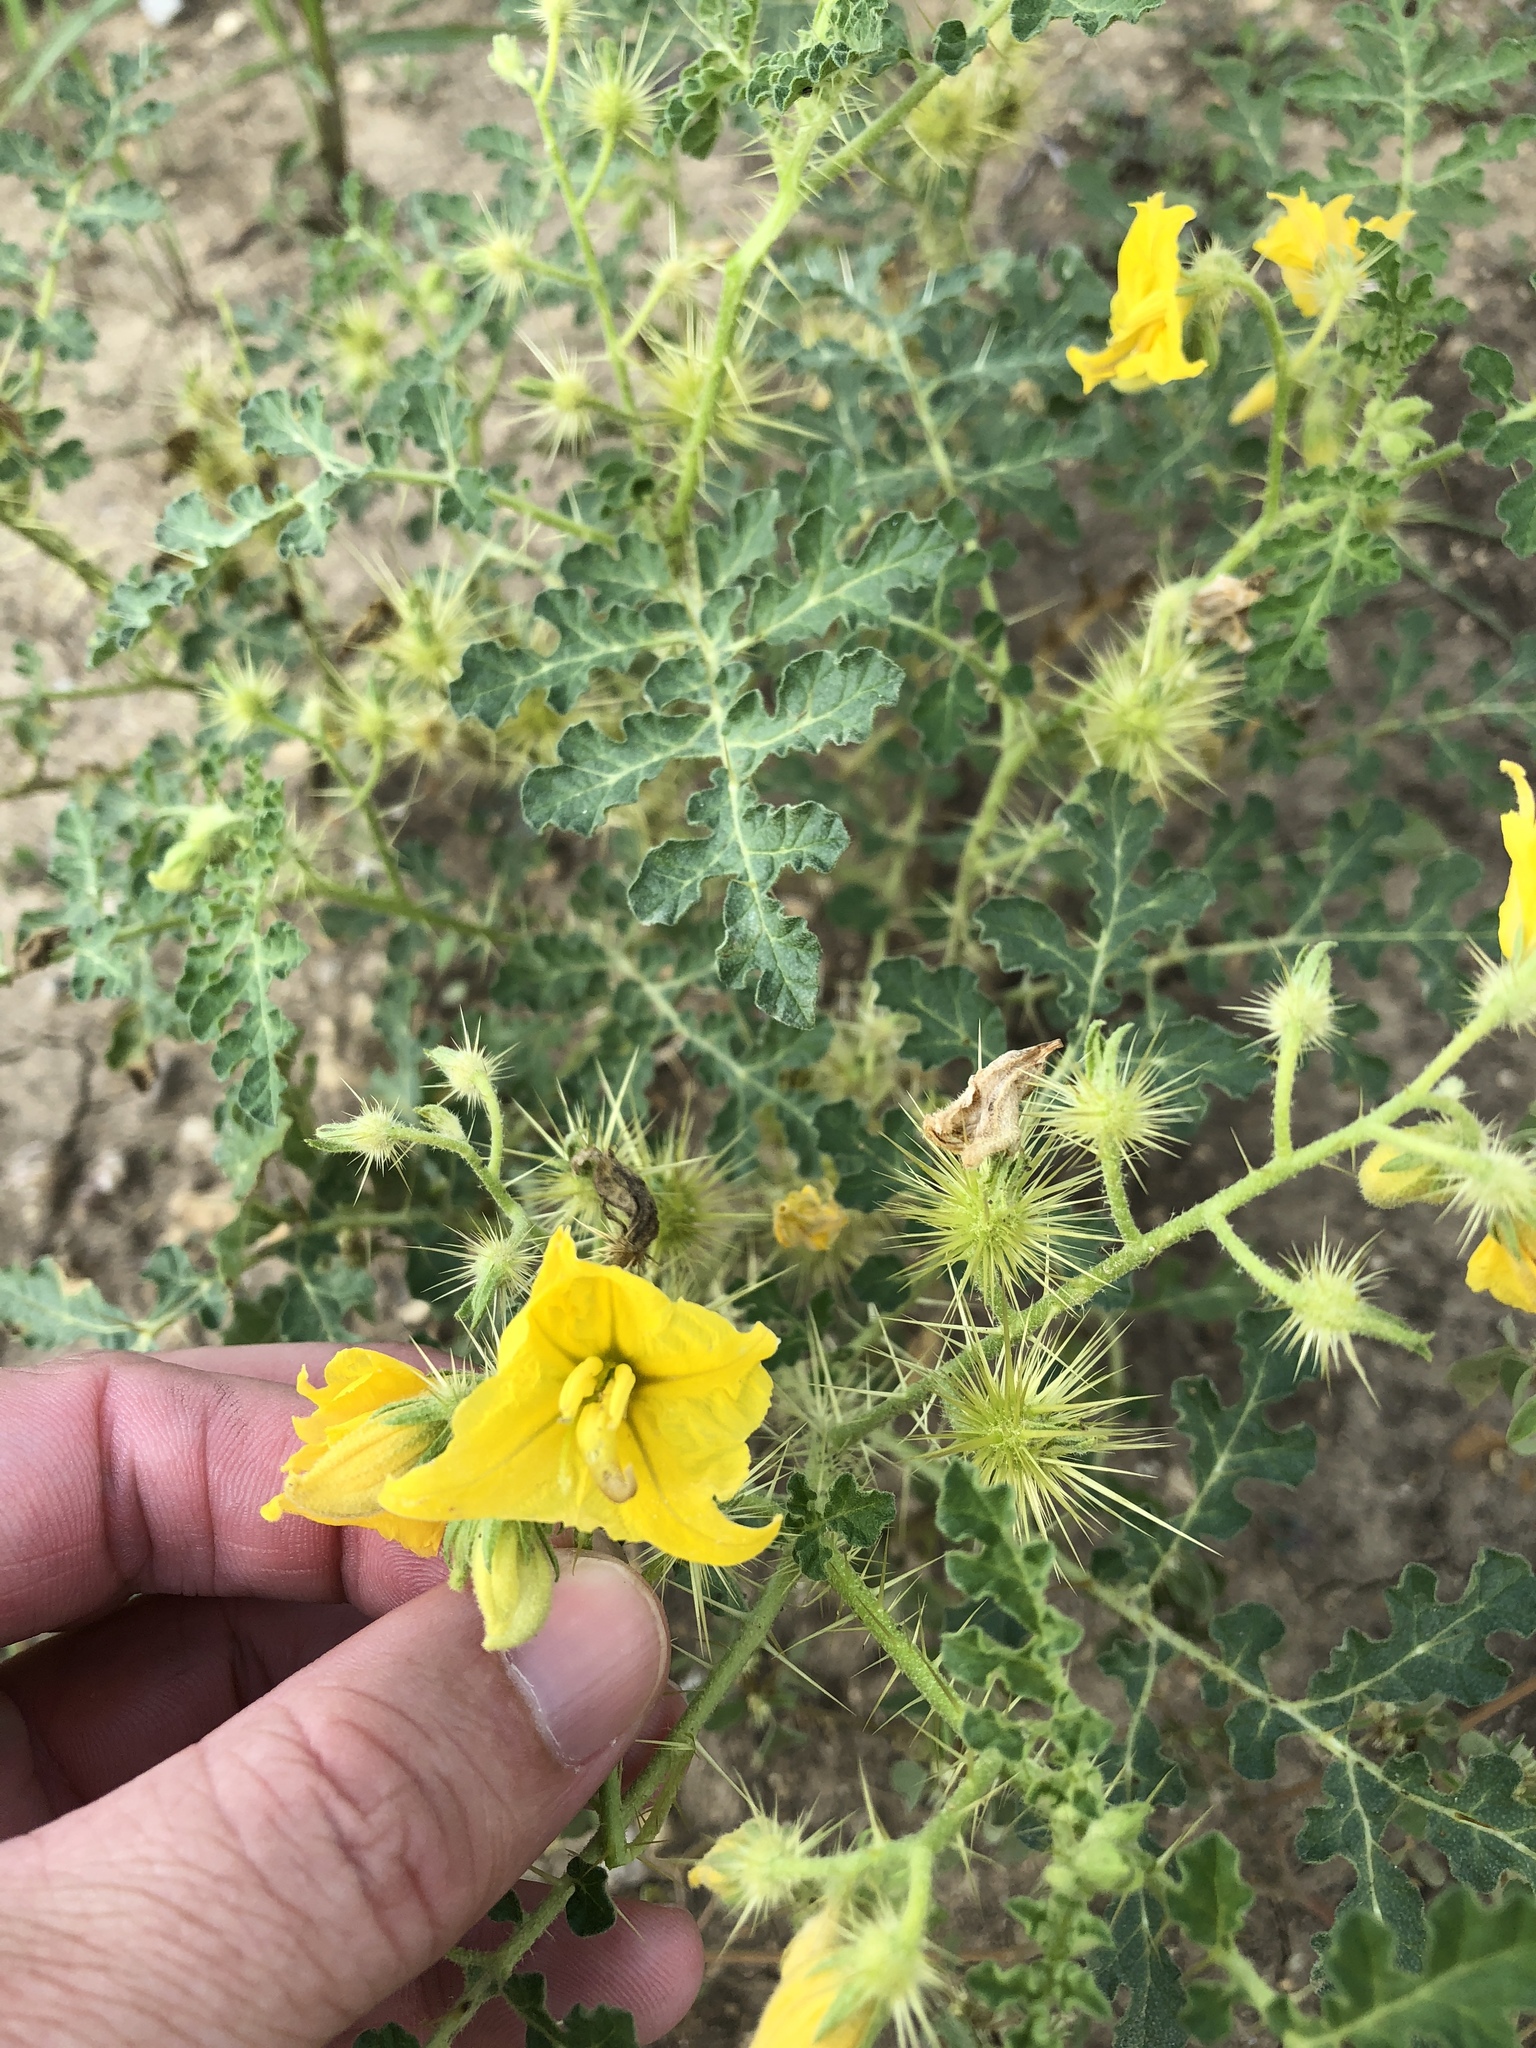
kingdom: Plantae
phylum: Tracheophyta
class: Magnoliopsida
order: Solanales
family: Solanaceae
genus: Solanum
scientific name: Solanum angustifolium
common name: Buffalobur nightshade
